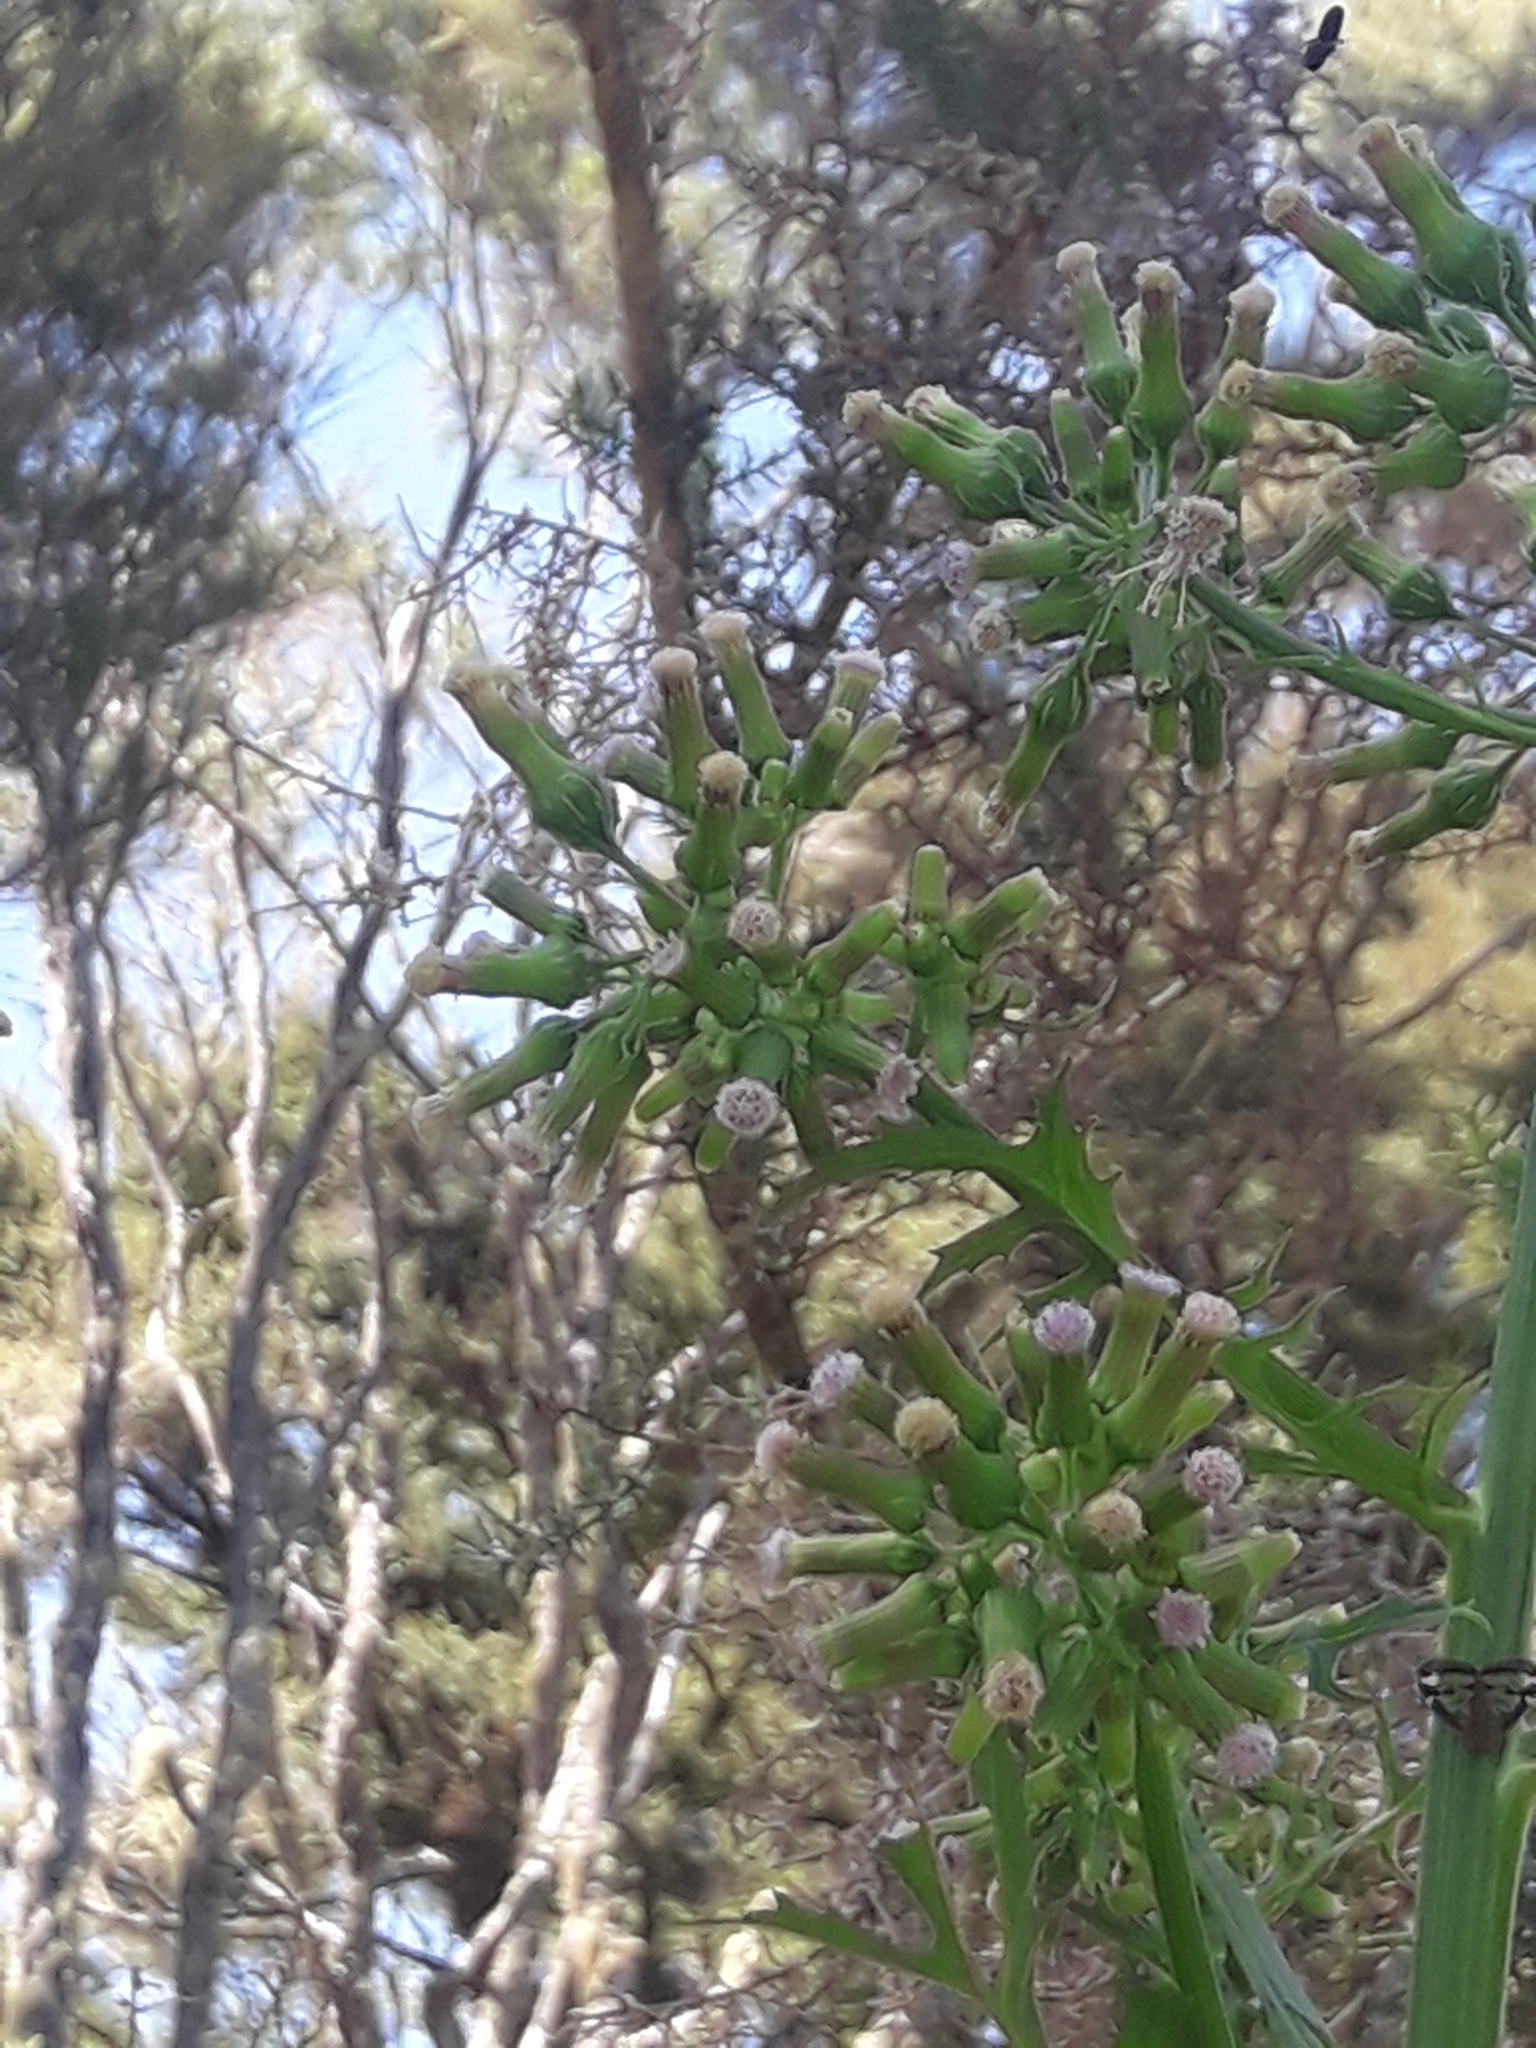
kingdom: Plantae
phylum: Tracheophyta
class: Magnoliopsida
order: Asterales
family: Asteraceae
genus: Erechtites
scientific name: Erechtites valerianifolius
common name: Tropical burnweed
